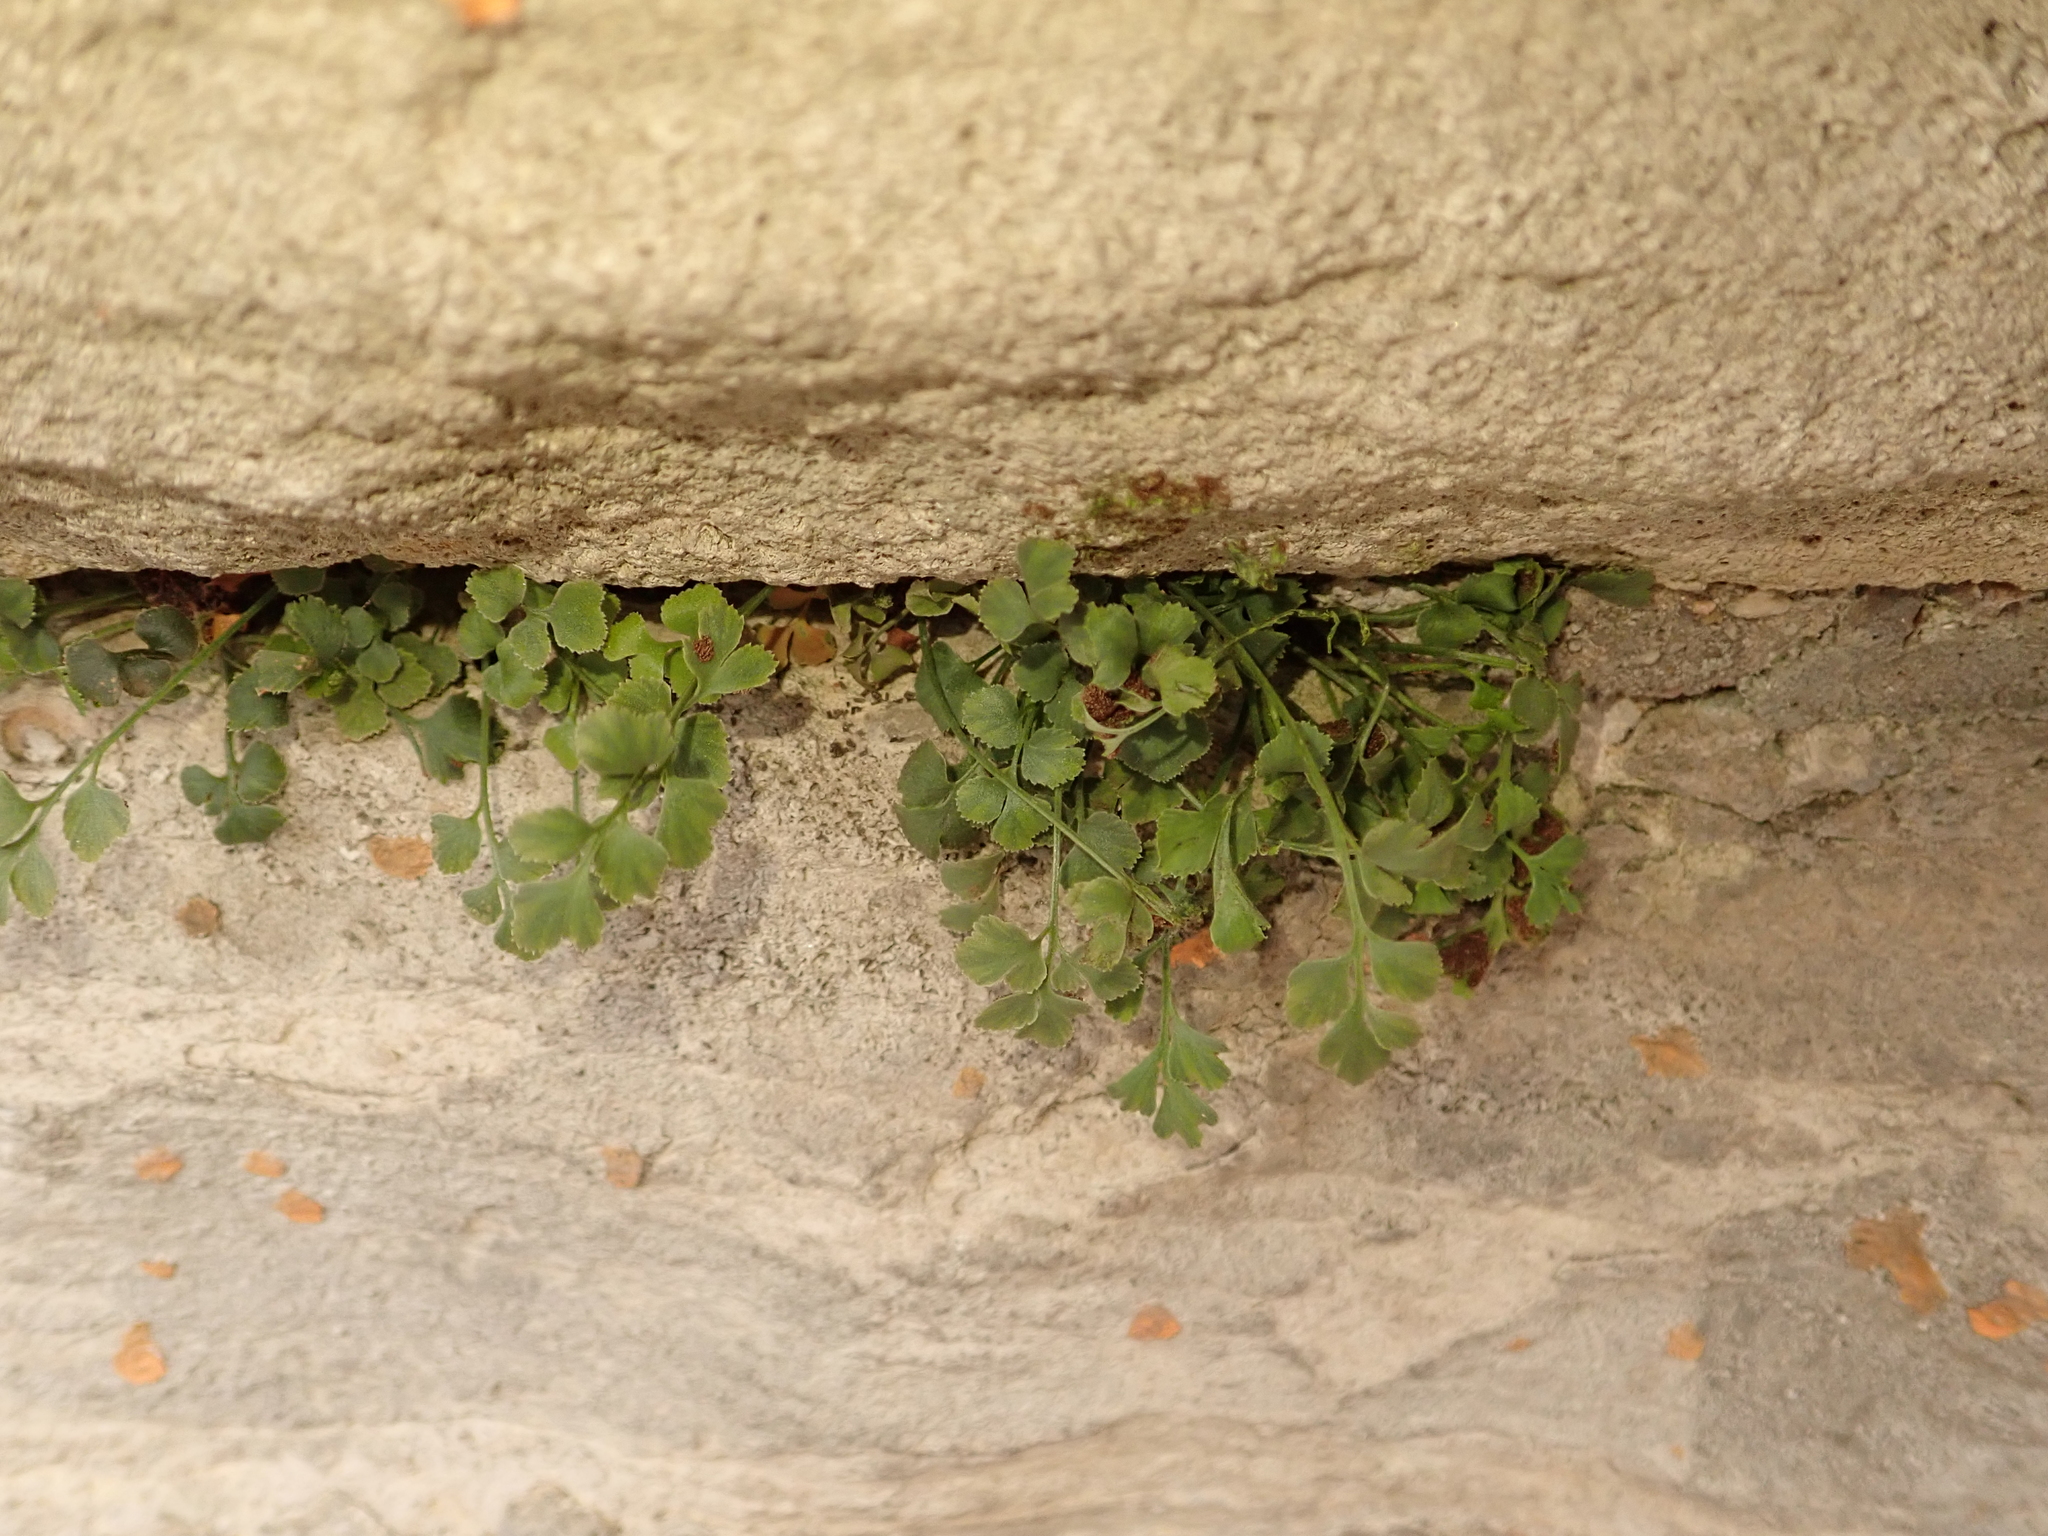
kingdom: Plantae
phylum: Tracheophyta
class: Polypodiopsida
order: Polypodiales
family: Aspleniaceae
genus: Asplenium
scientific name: Asplenium ruta-muraria
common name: Wall-rue
